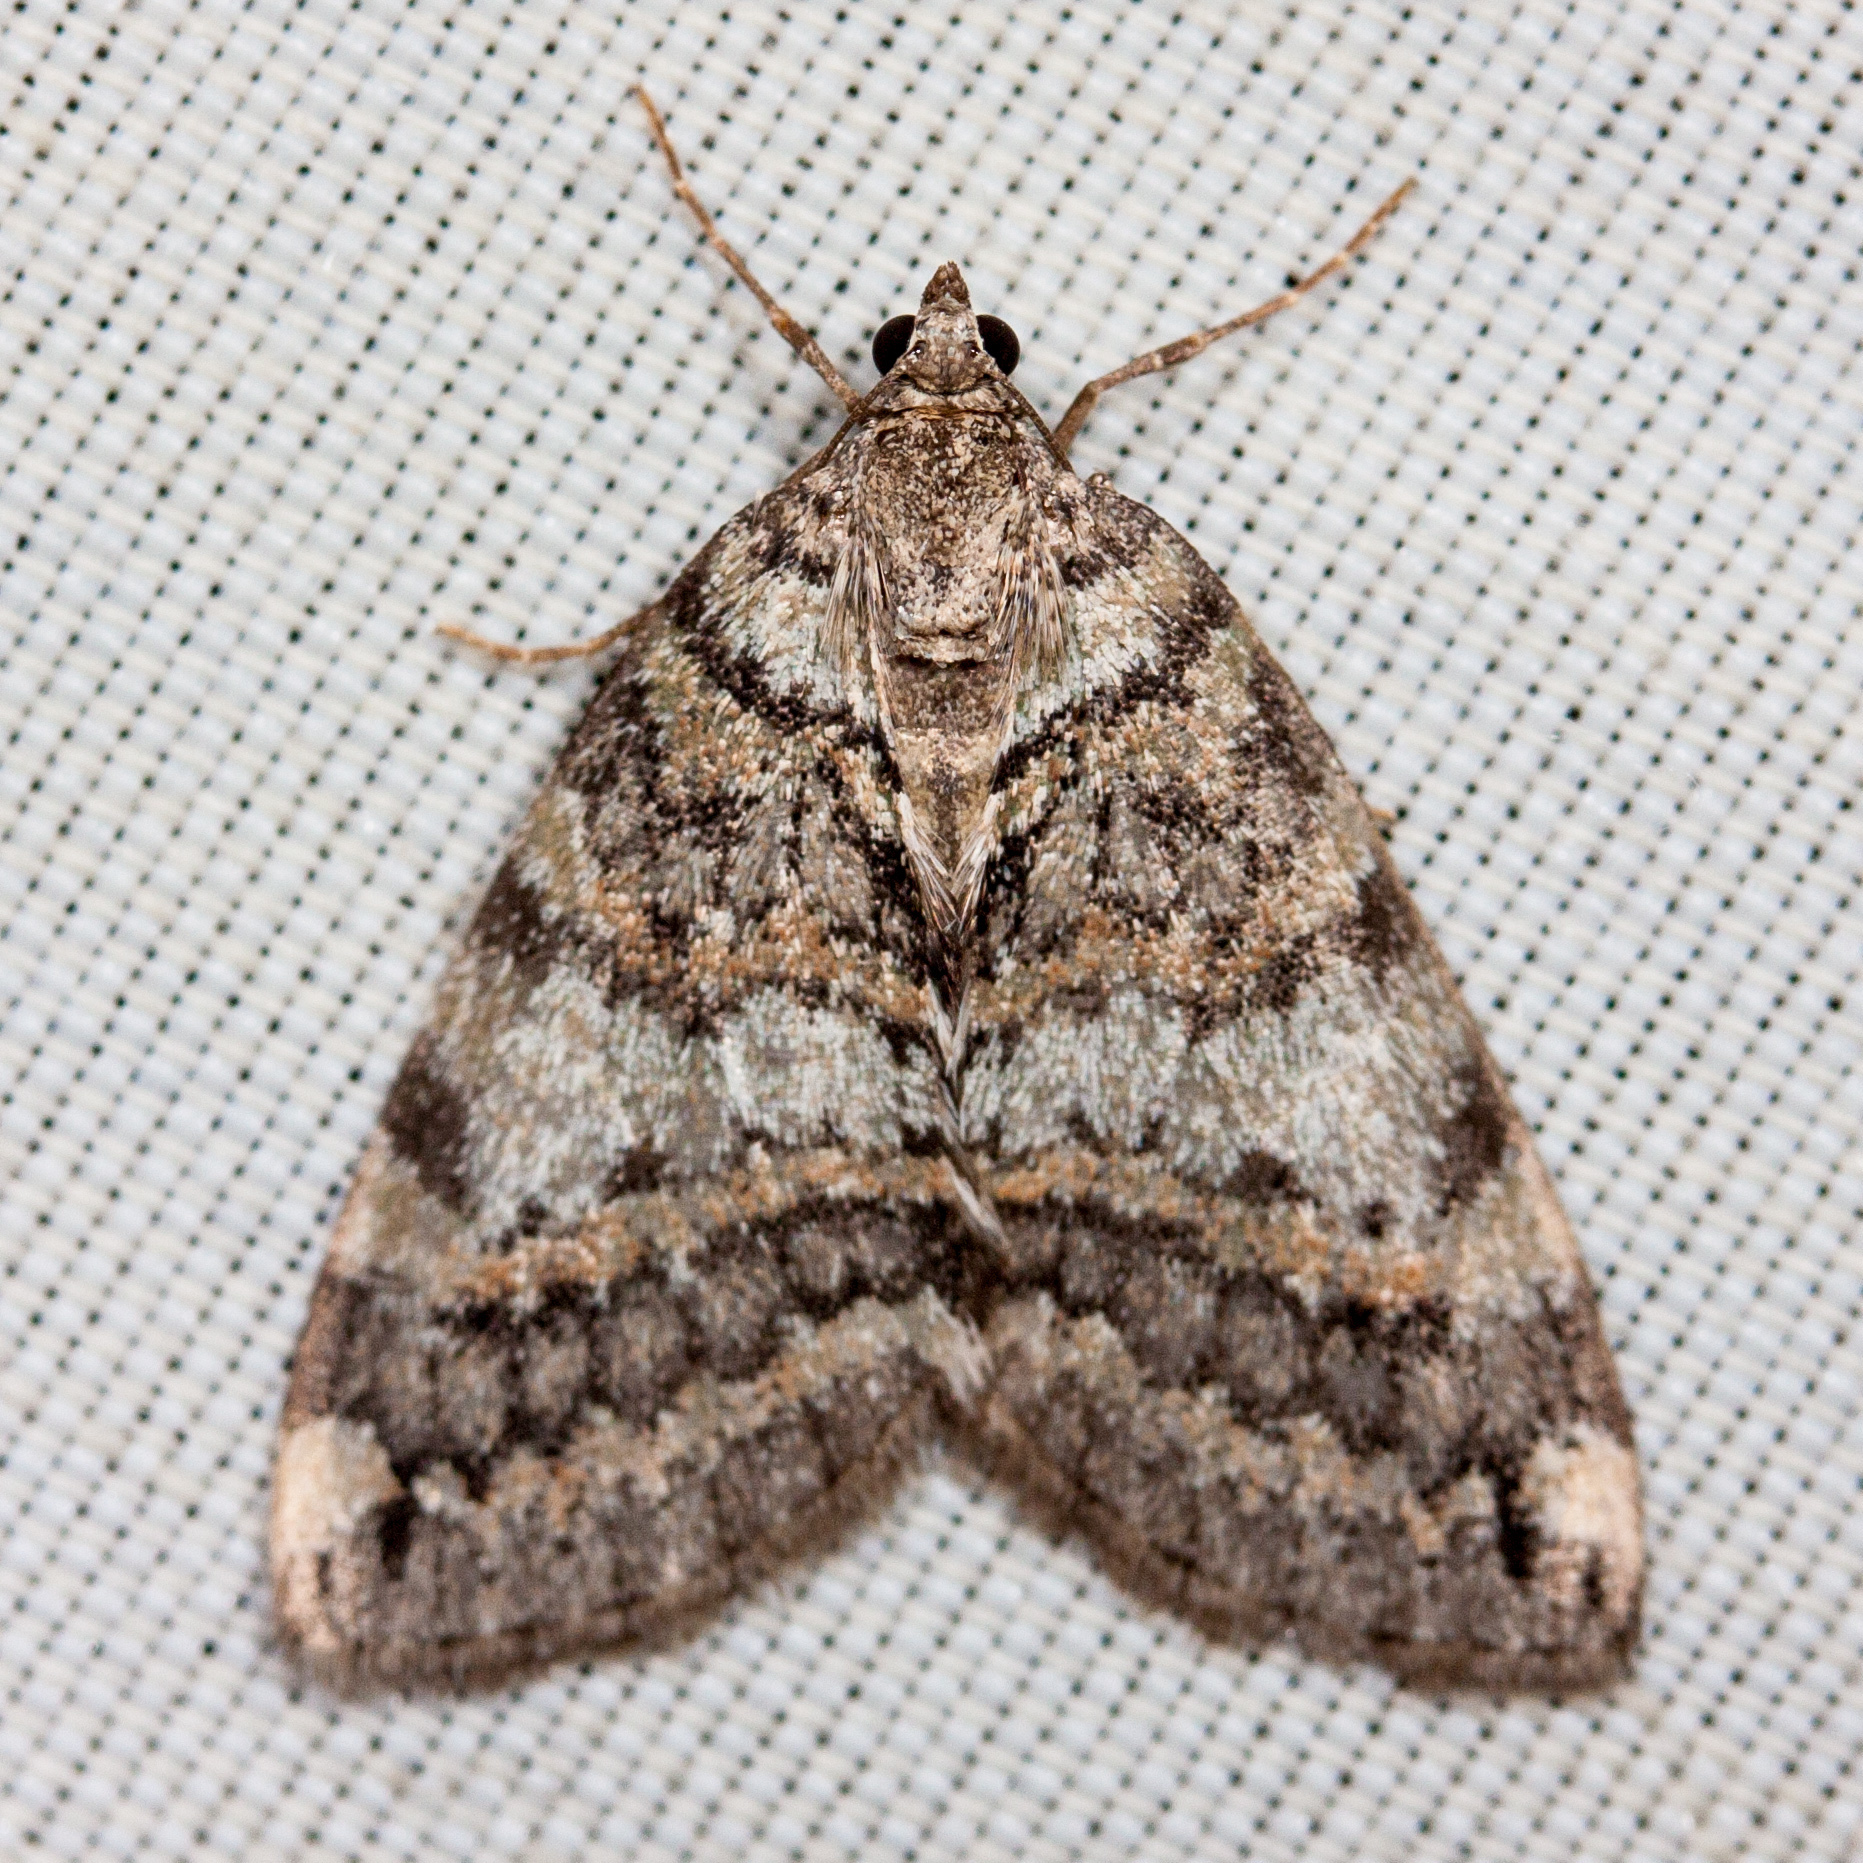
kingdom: Animalia
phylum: Arthropoda
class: Insecta
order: Lepidoptera
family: Geometridae
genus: Hydriomena
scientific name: Hydriomena nubilofasciata
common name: Oak winter highflier moth
